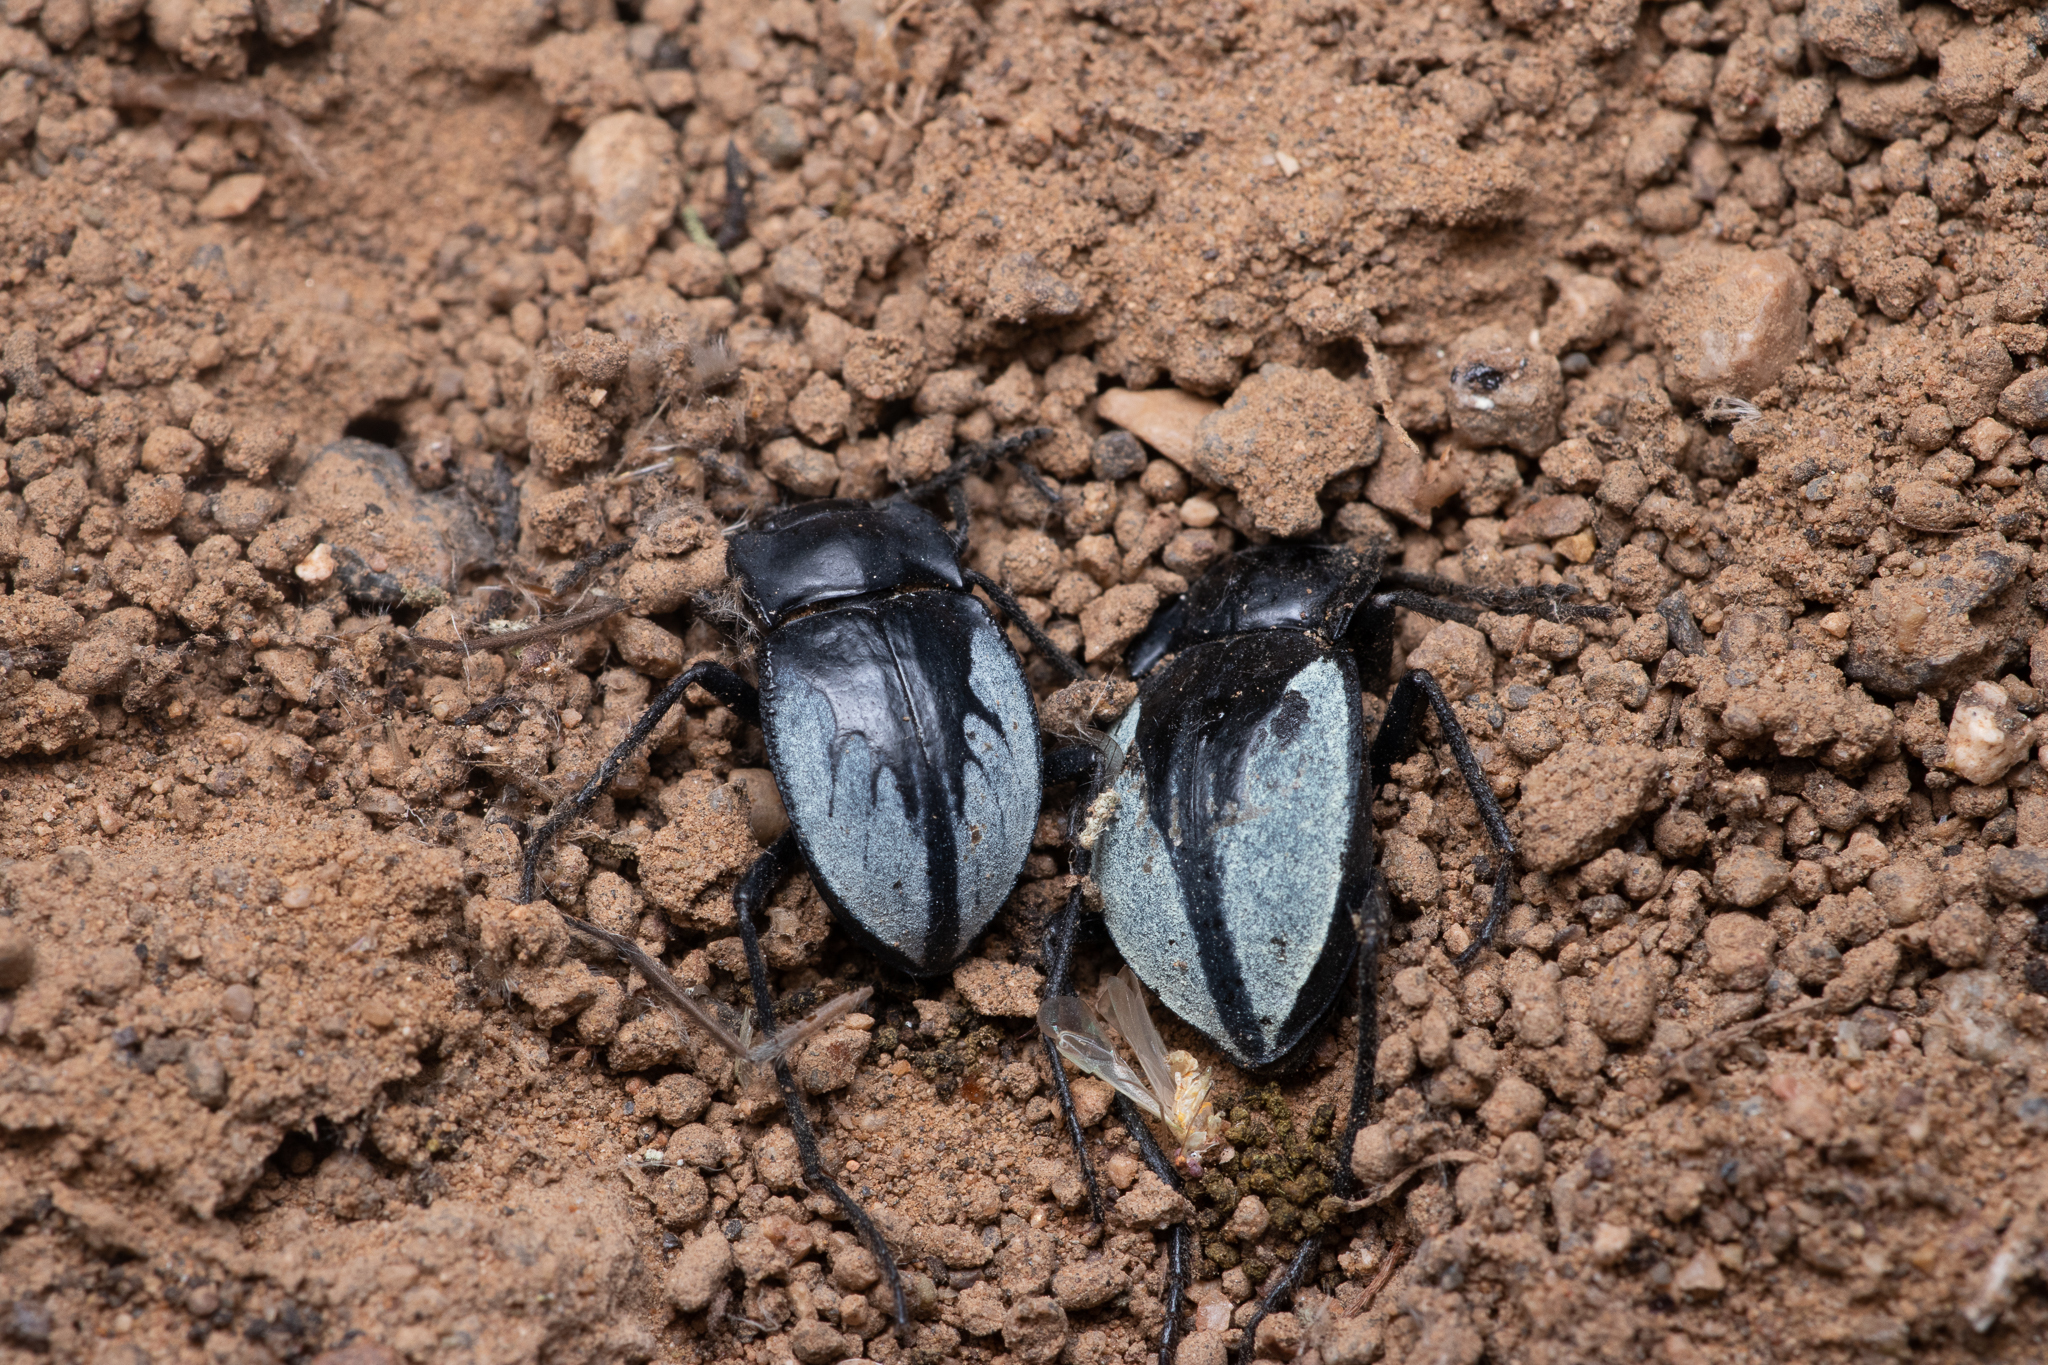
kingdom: Animalia
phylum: Arthropoda
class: Insecta
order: Coleoptera
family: Tenebrionidae
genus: Gyriosomus
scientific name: Gyriosomus
